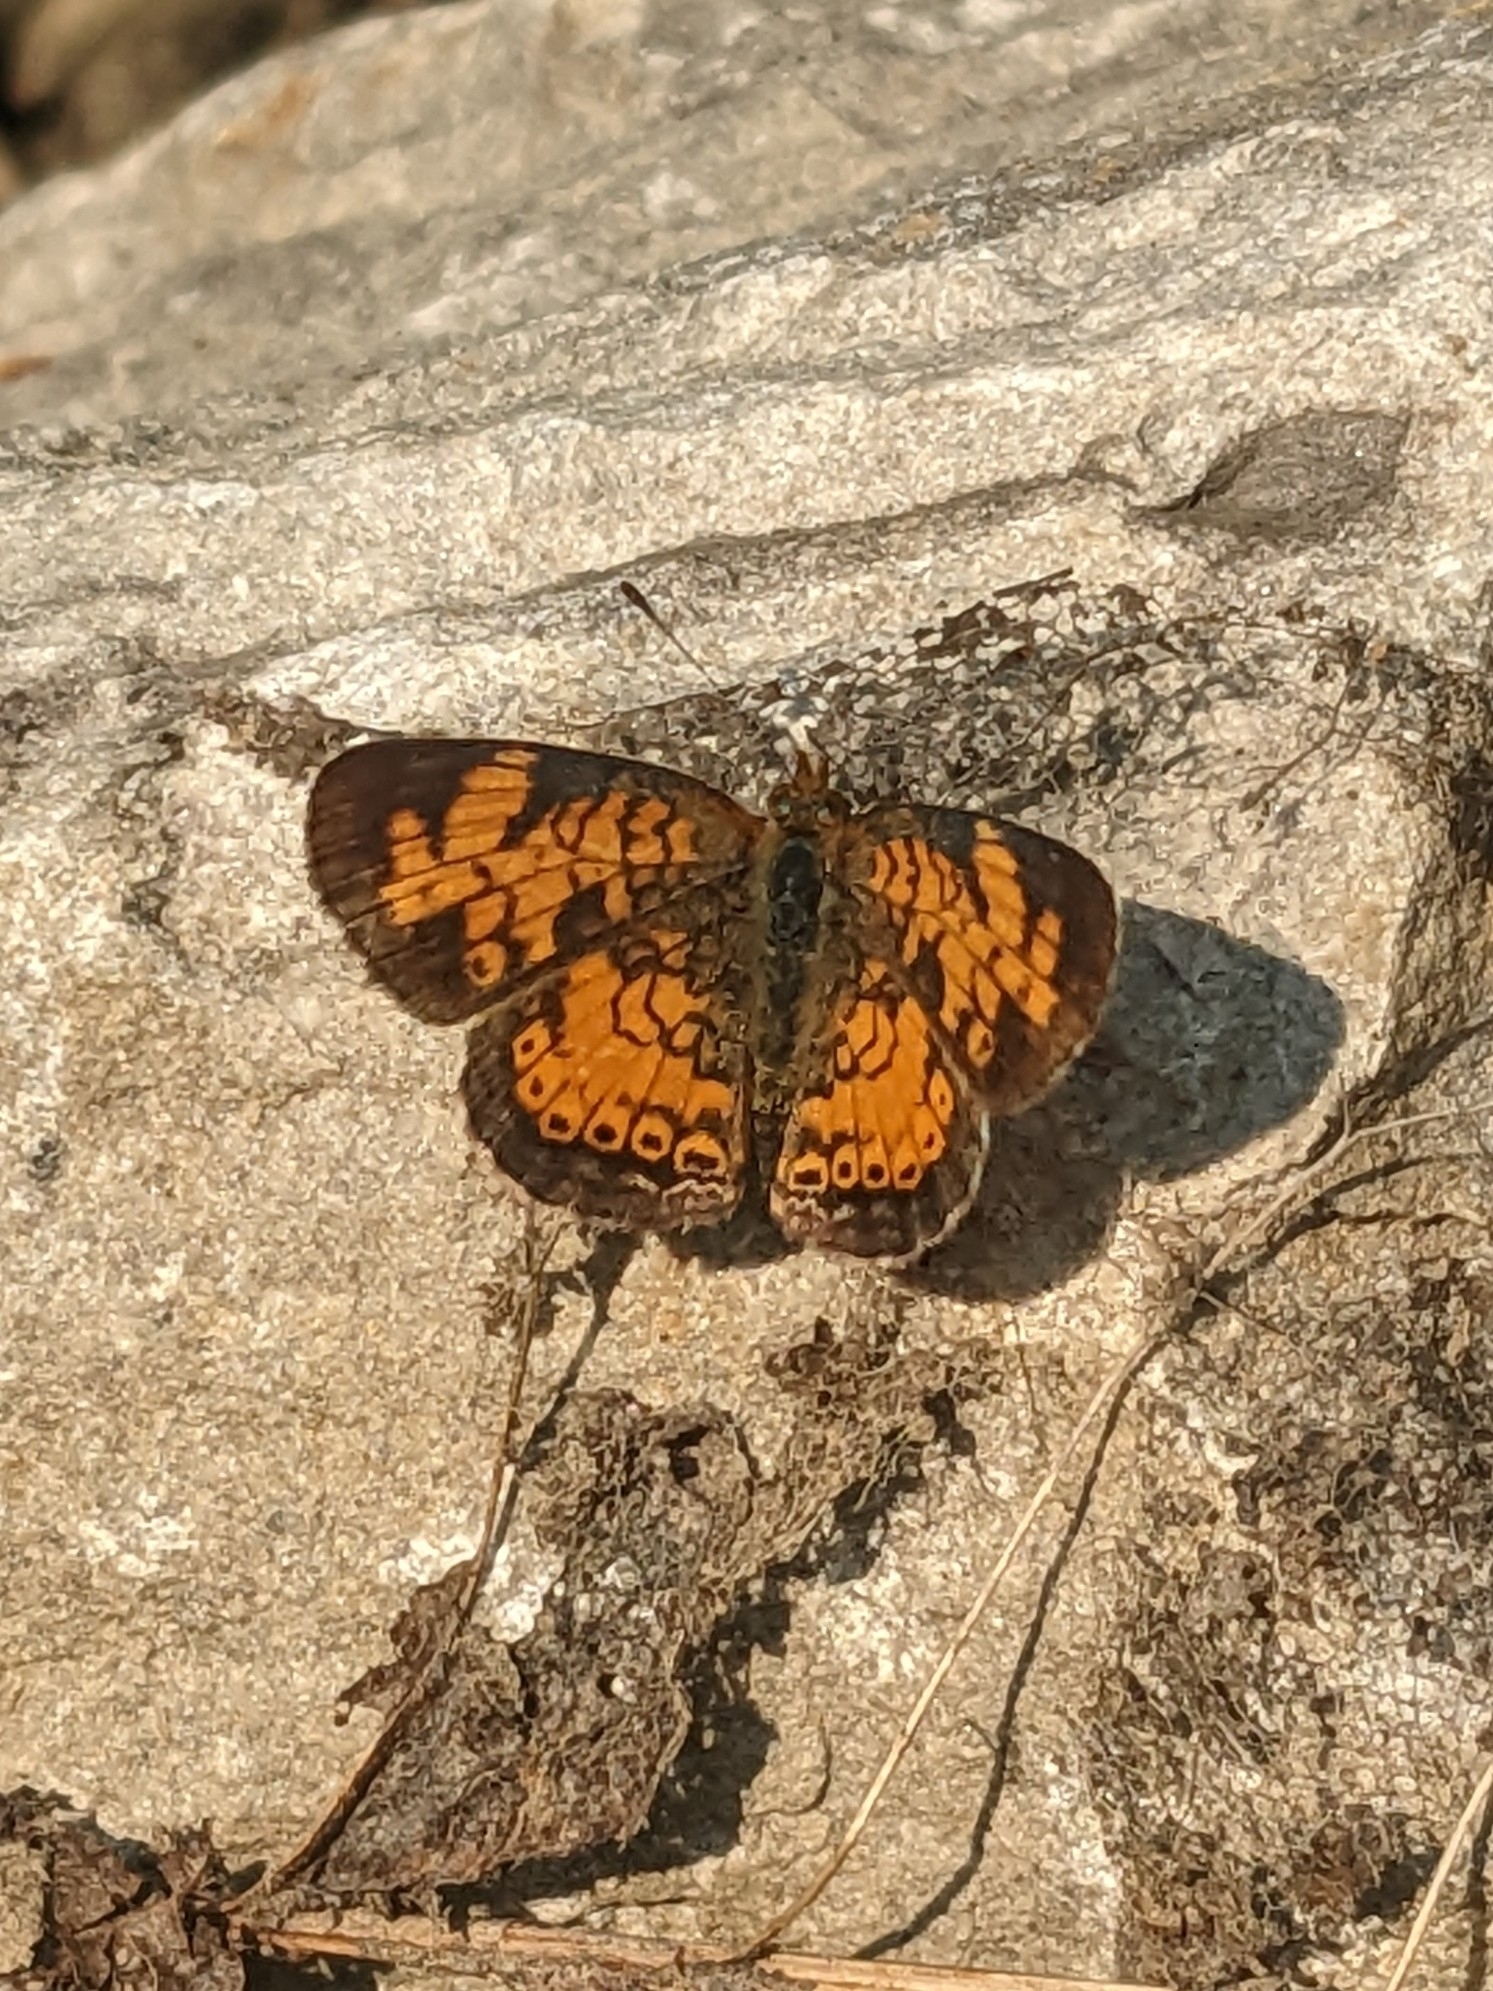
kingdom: Animalia
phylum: Arthropoda
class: Insecta
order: Lepidoptera
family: Nymphalidae
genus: Phyciodes
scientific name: Phyciodes tharos
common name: Pearl crescent
